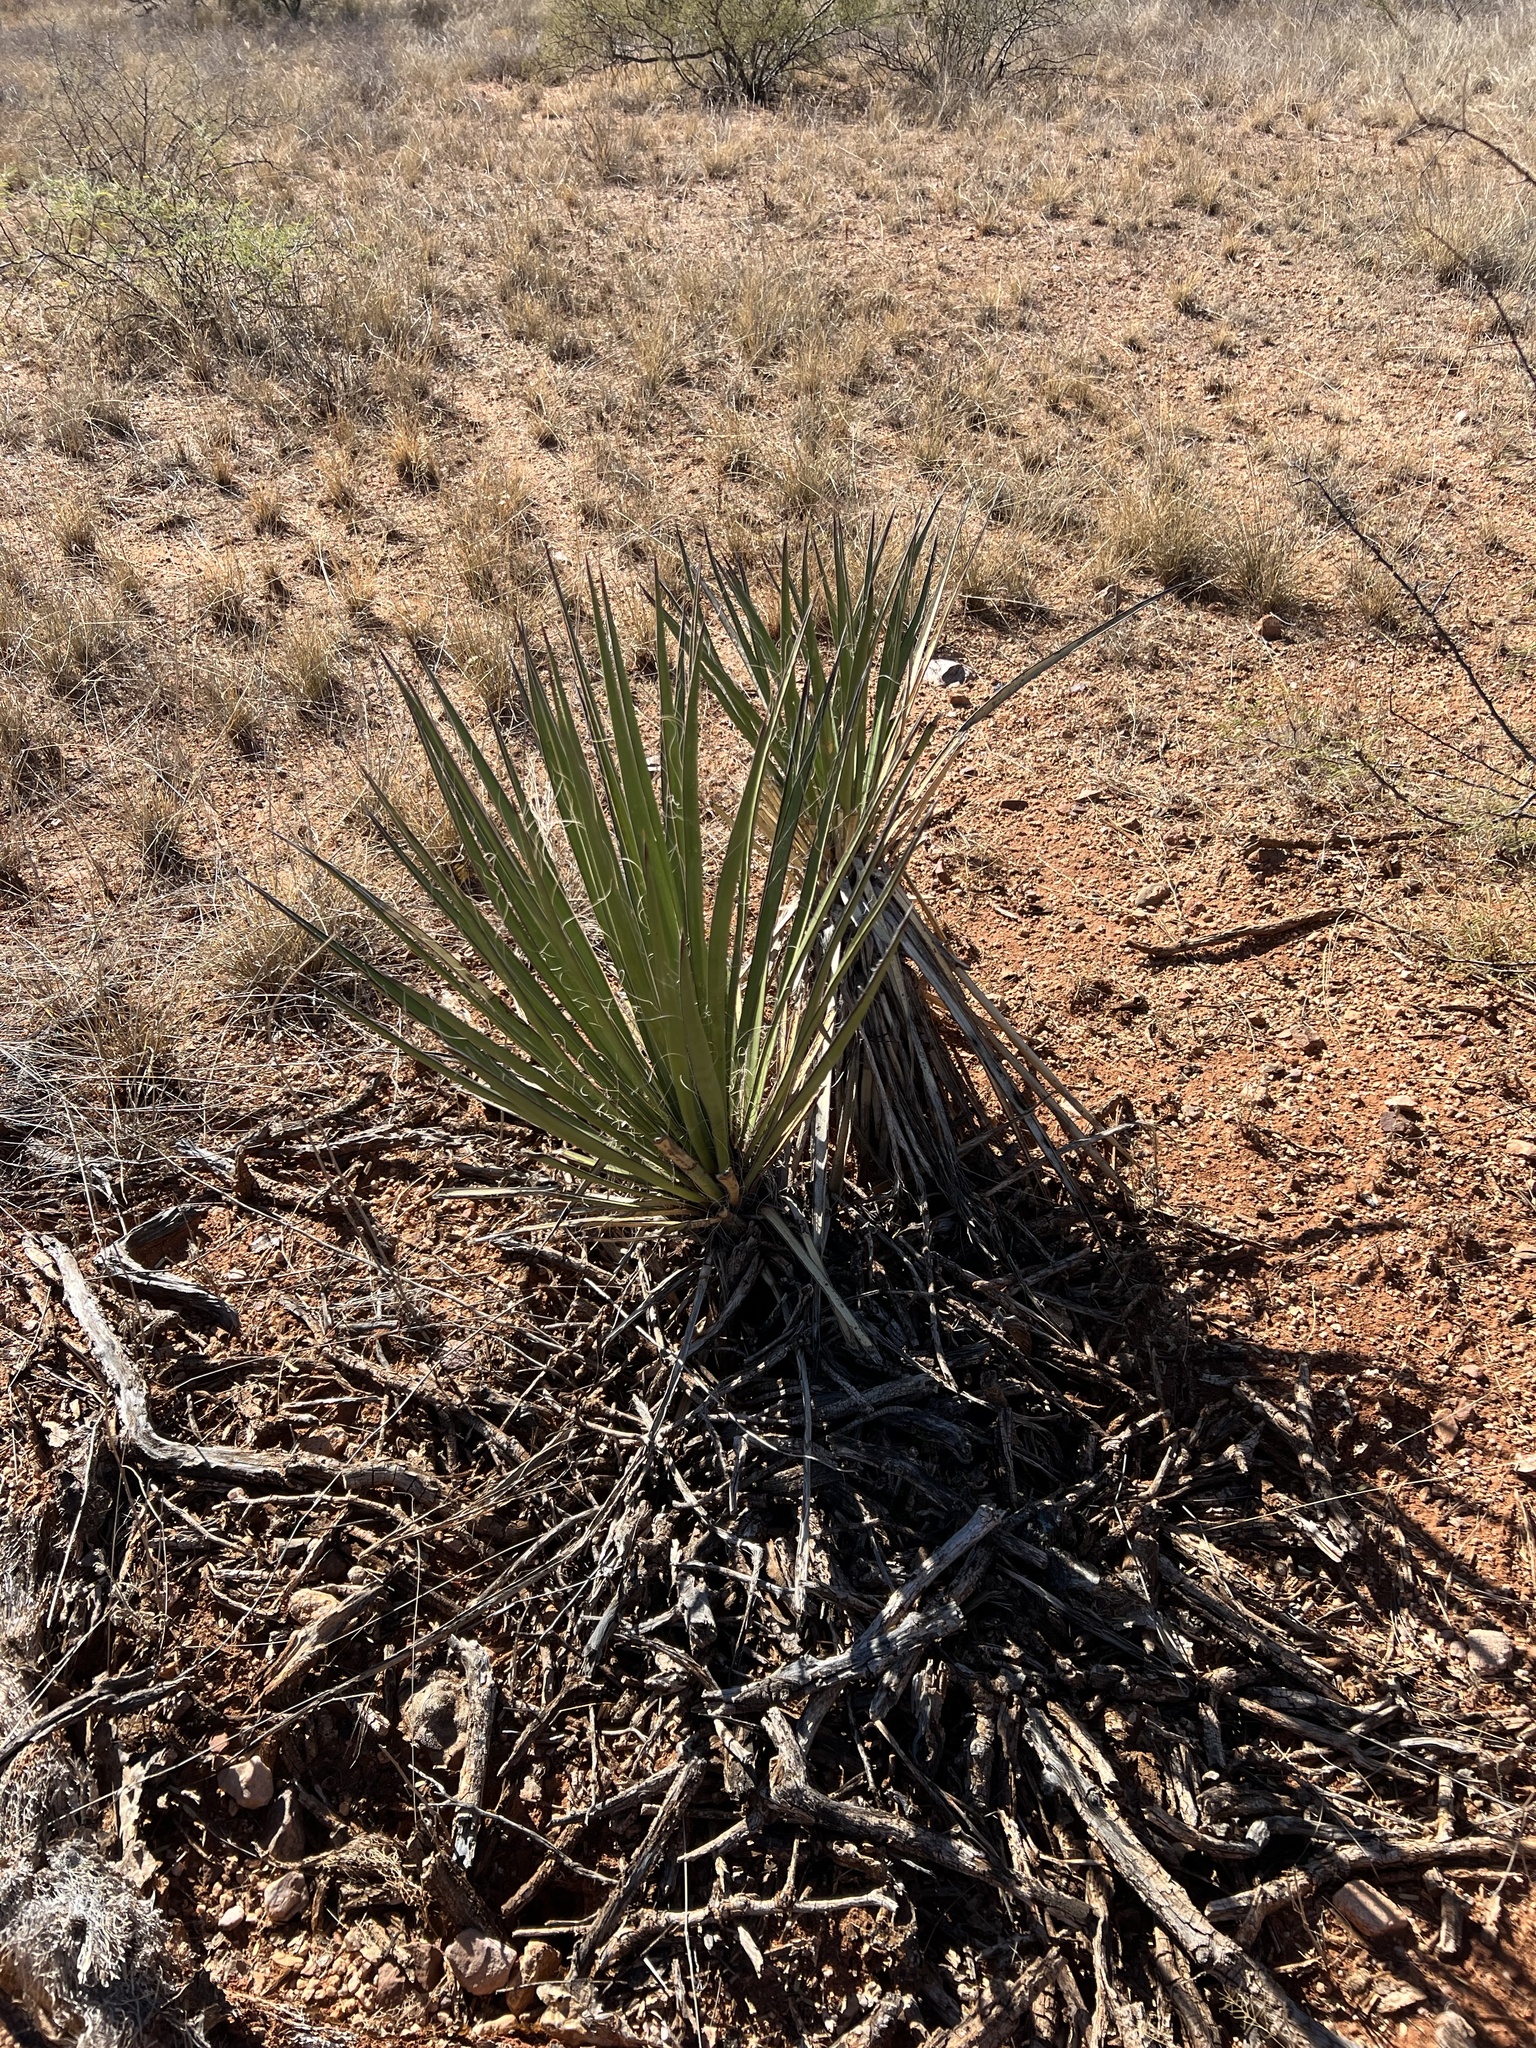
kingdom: Plantae
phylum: Tracheophyta
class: Liliopsida
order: Asparagales
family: Asparagaceae
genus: Yucca
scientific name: Yucca baccata
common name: Banana yucca
